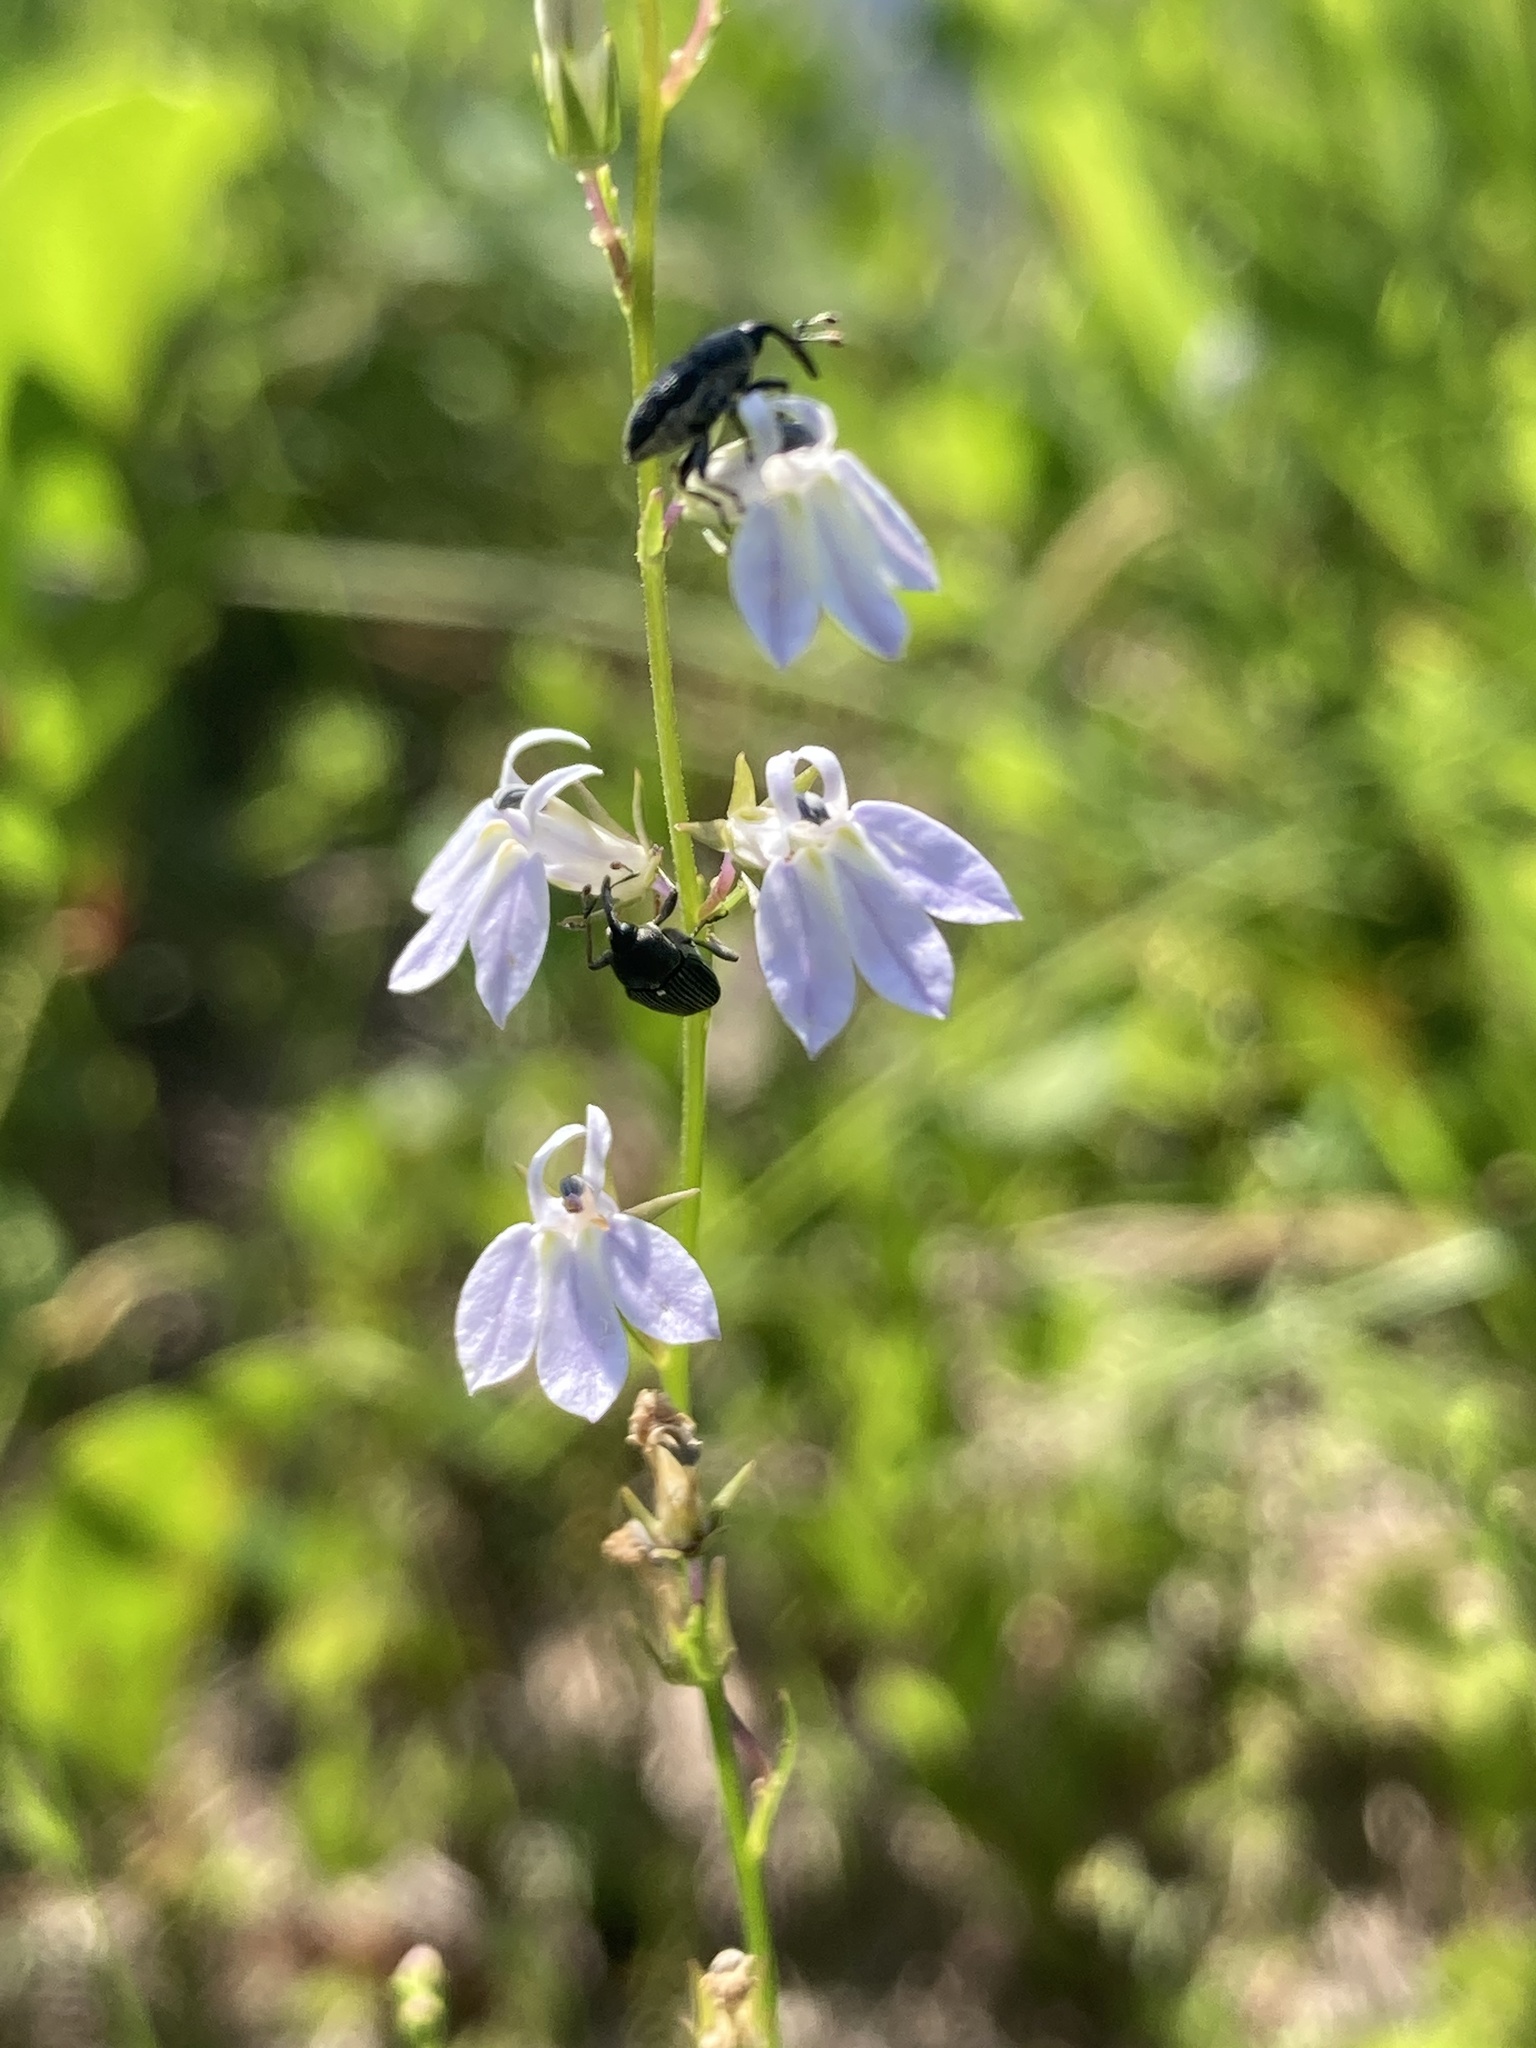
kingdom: Plantae
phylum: Tracheophyta
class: Magnoliopsida
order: Asterales
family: Campanulaceae
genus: Lobelia
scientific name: Lobelia nuttallii
